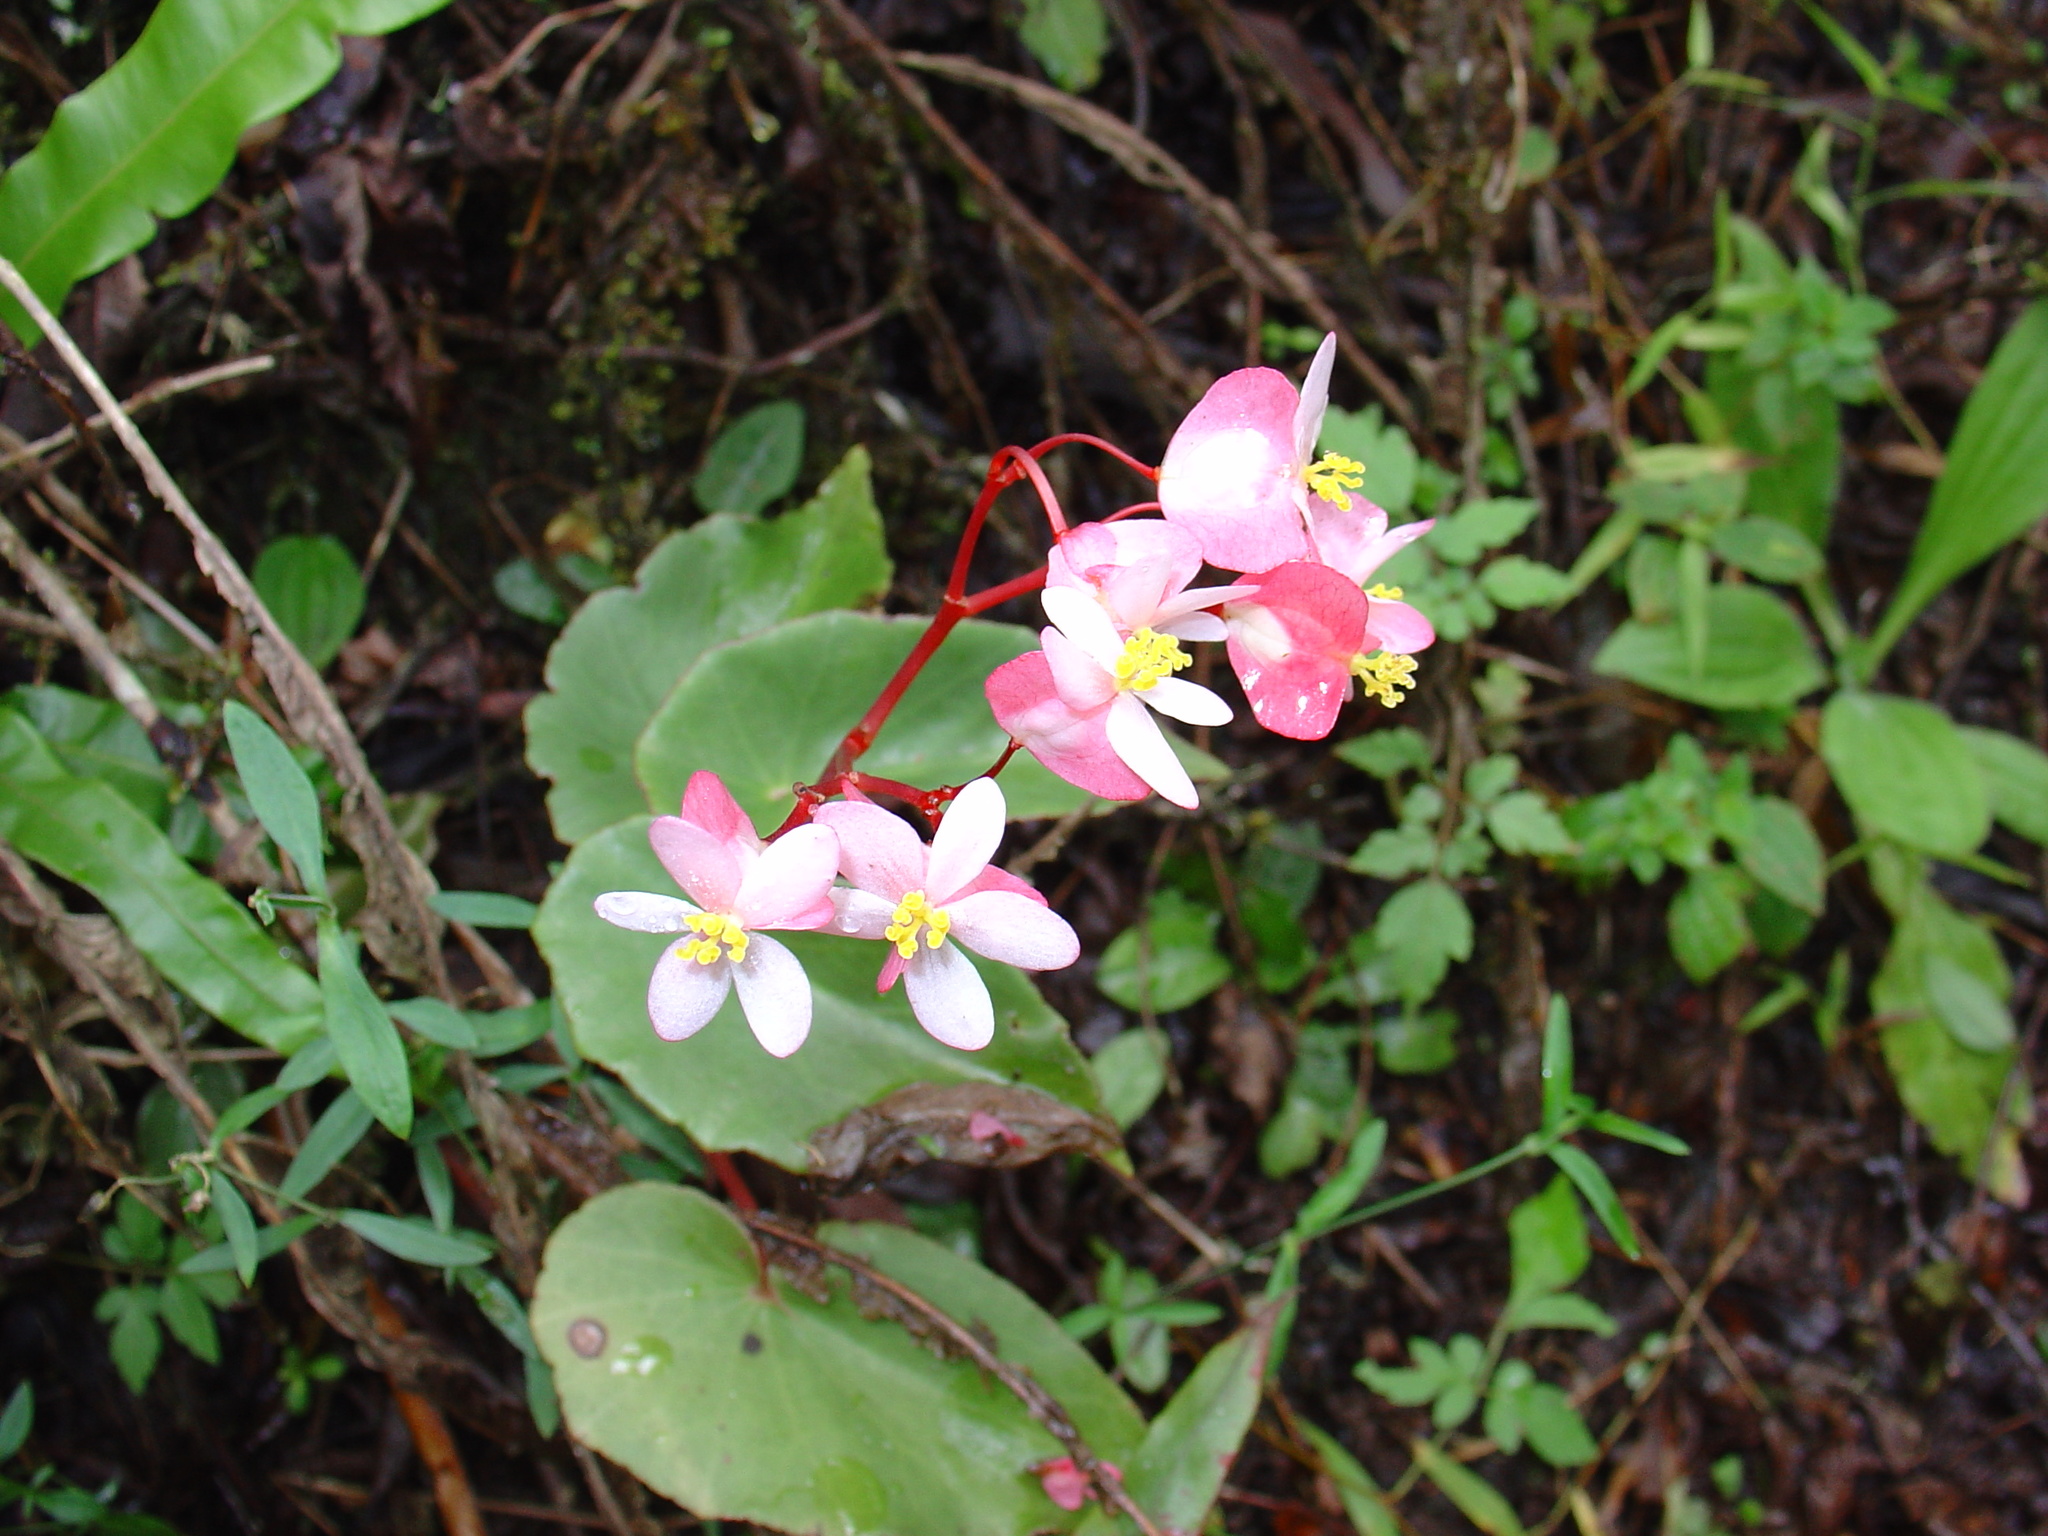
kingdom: Plantae
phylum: Tracheophyta
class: Magnoliopsida
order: Cucurbitales
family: Begoniaceae
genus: Begonia
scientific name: Begonia altoperuviana
